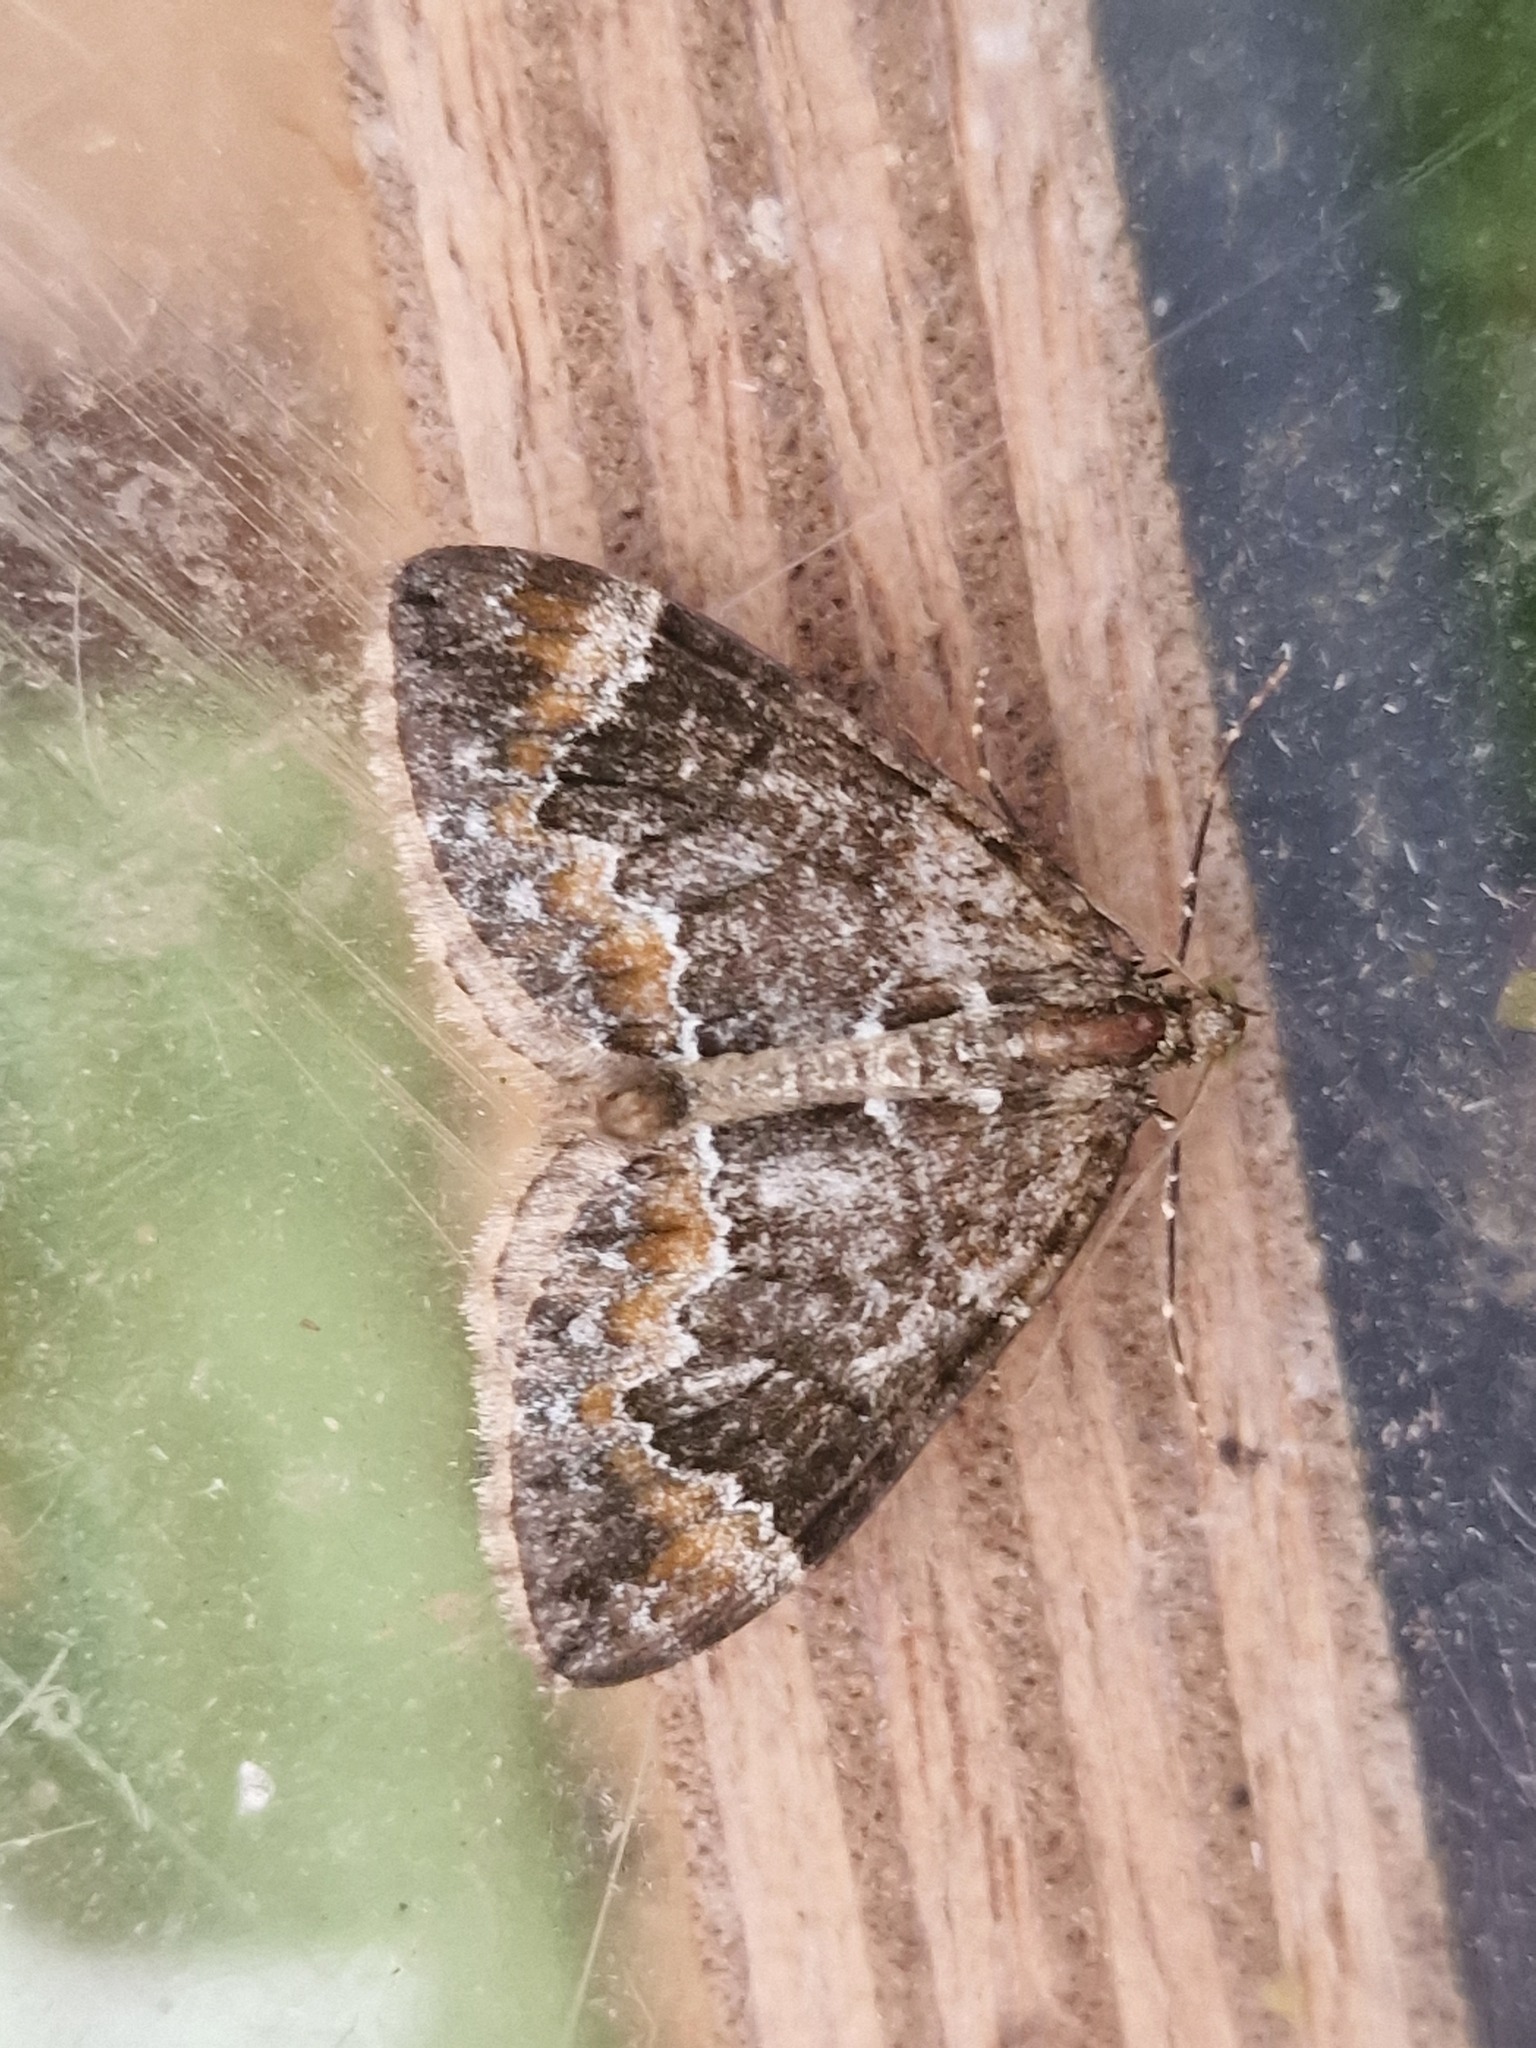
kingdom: Animalia
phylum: Arthropoda
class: Insecta
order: Lepidoptera
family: Geometridae
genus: Dysstroma
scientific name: Dysstroma truncata
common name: Common marbled carpet
